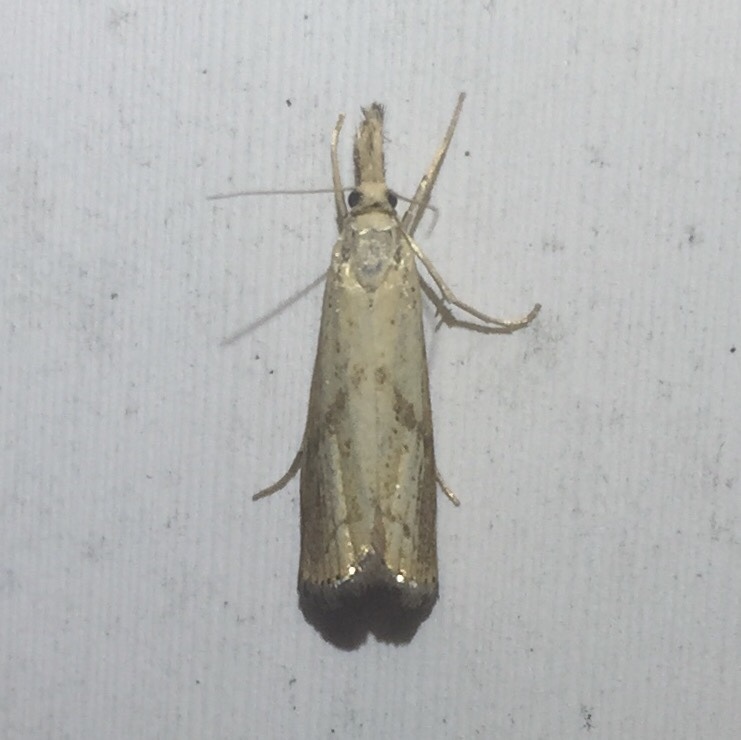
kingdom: Animalia
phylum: Arthropoda
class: Insecta
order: Lepidoptera
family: Crambidae
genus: Agriphila
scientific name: Agriphila ruricolellus
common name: Lesser vagabond sod webworm
